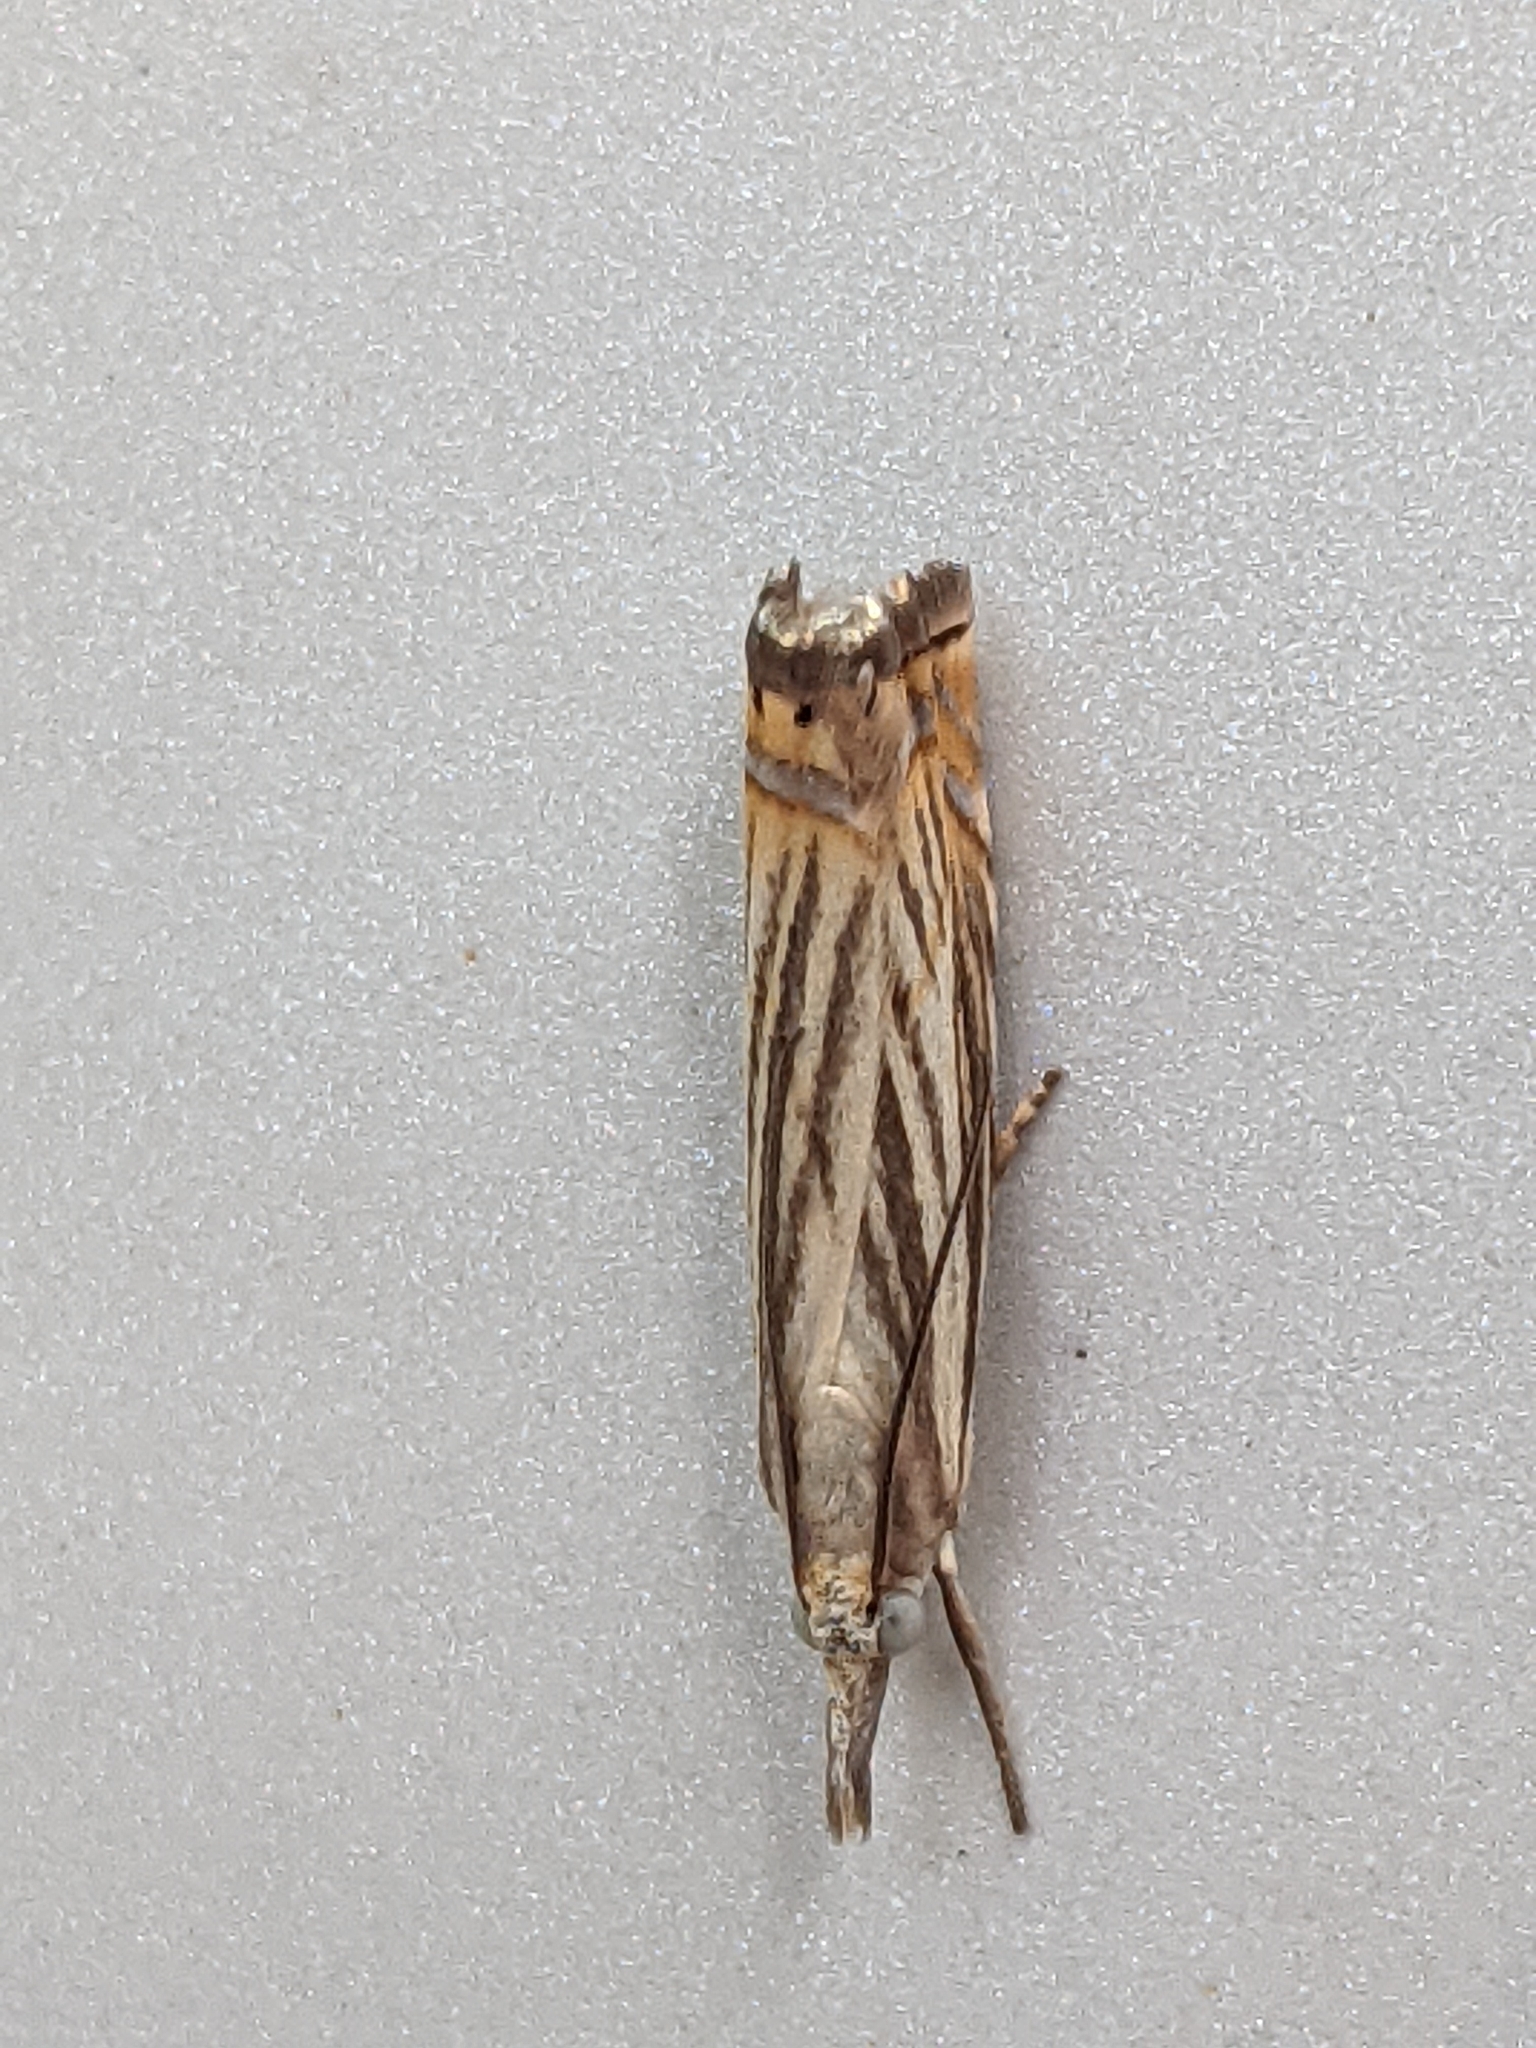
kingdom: Animalia
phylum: Arthropoda
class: Insecta
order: Lepidoptera
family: Crambidae
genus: Chrysoteuchia
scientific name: Chrysoteuchia topiarius
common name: Topiary grass-veneer
